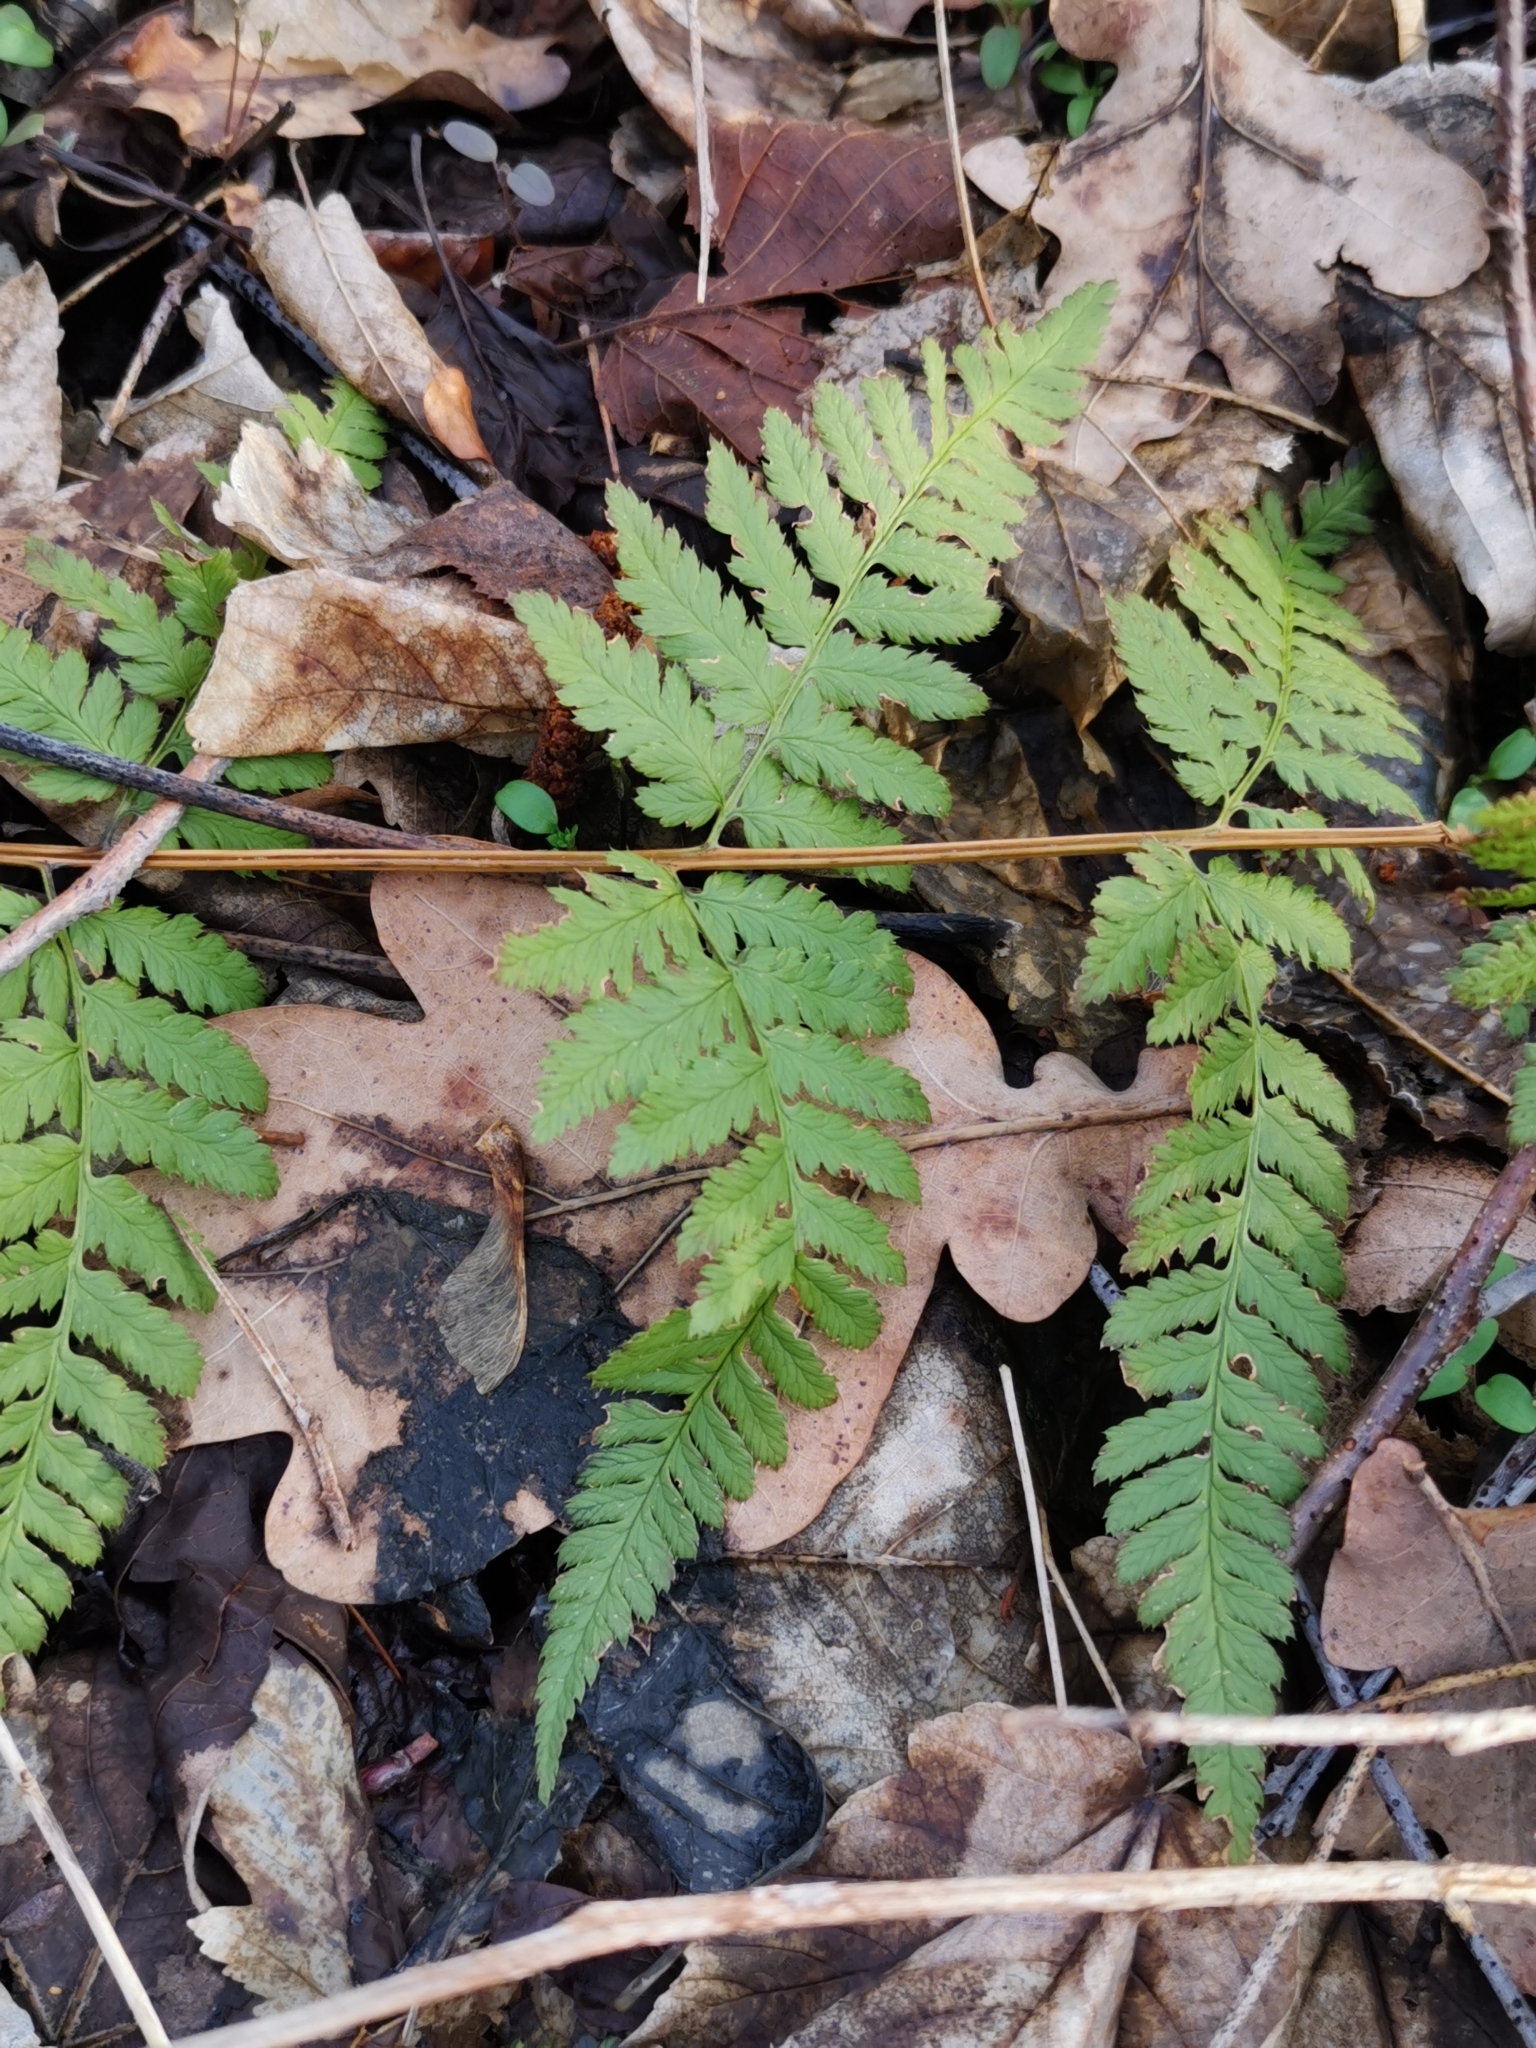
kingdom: Plantae
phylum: Tracheophyta
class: Polypodiopsida
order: Polypodiales
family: Dryopteridaceae
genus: Dryopteris
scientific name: Dryopteris carthusiana
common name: Narrow buckler-fern
